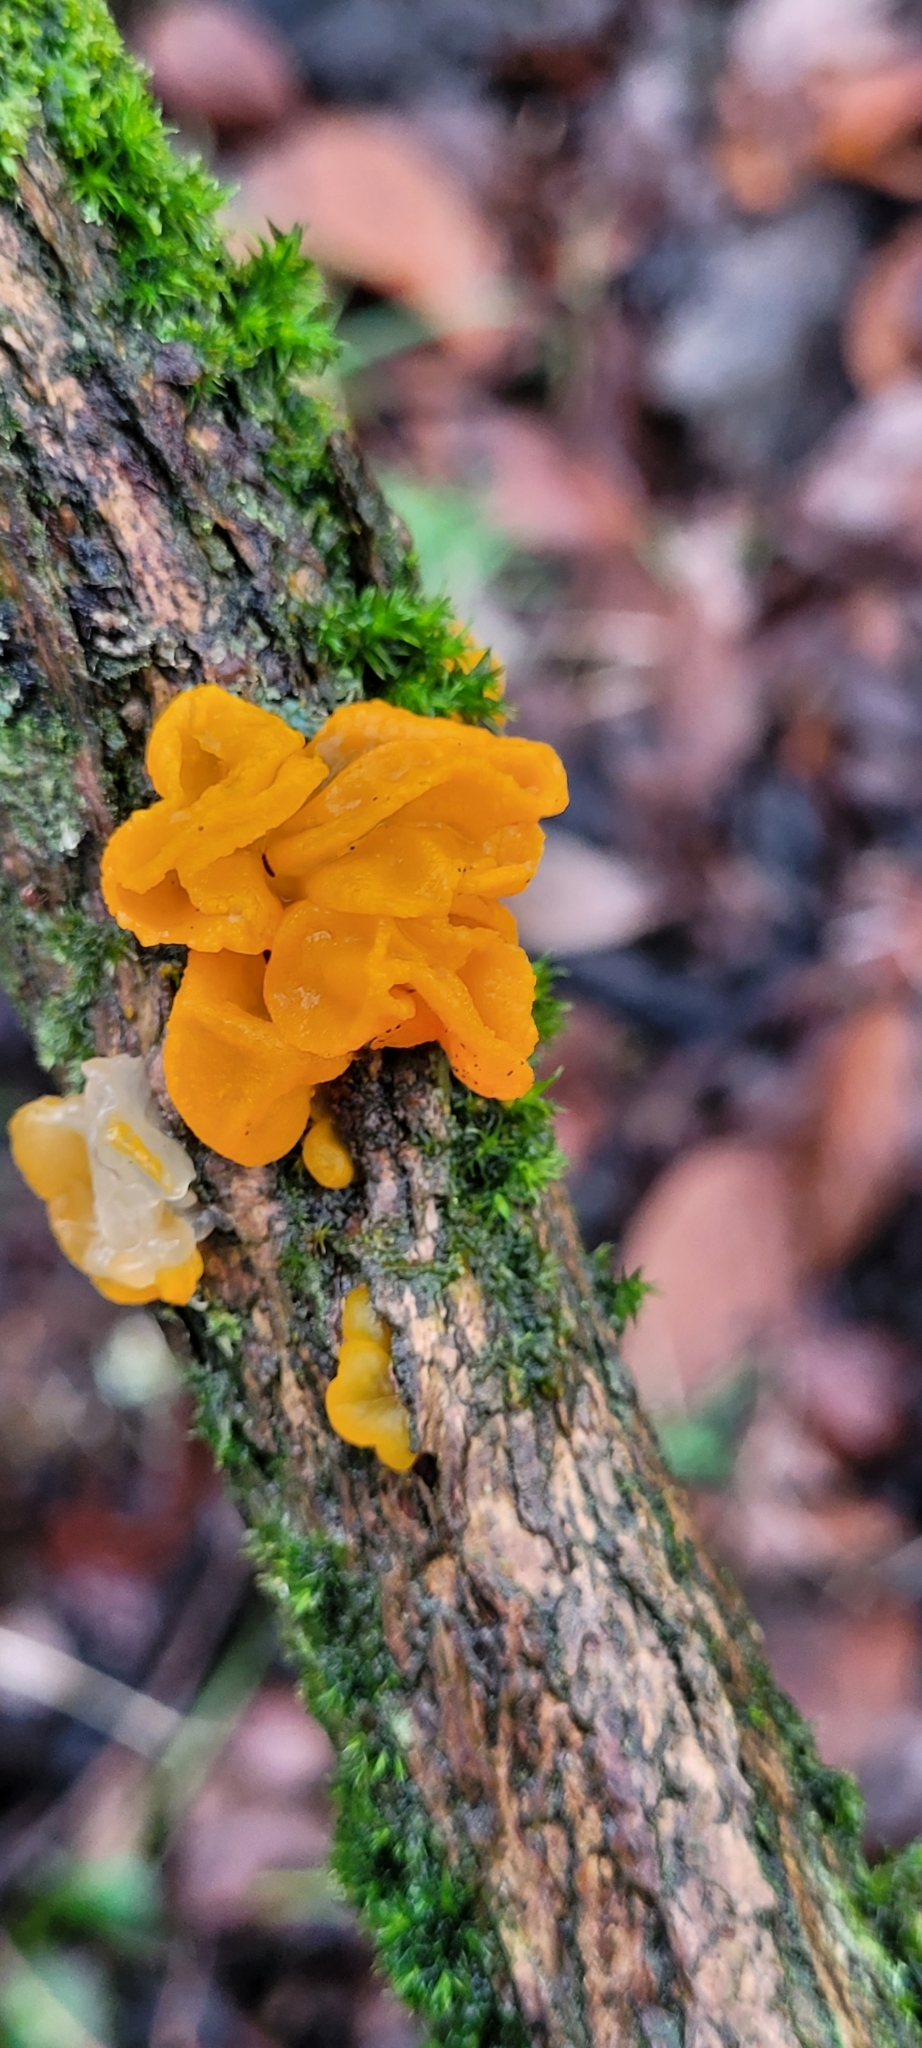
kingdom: Fungi
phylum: Basidiomycota
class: Tremellomycetes
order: Tremellales
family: Tremellaceae
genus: Tremella
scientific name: Tremella mesenterica
